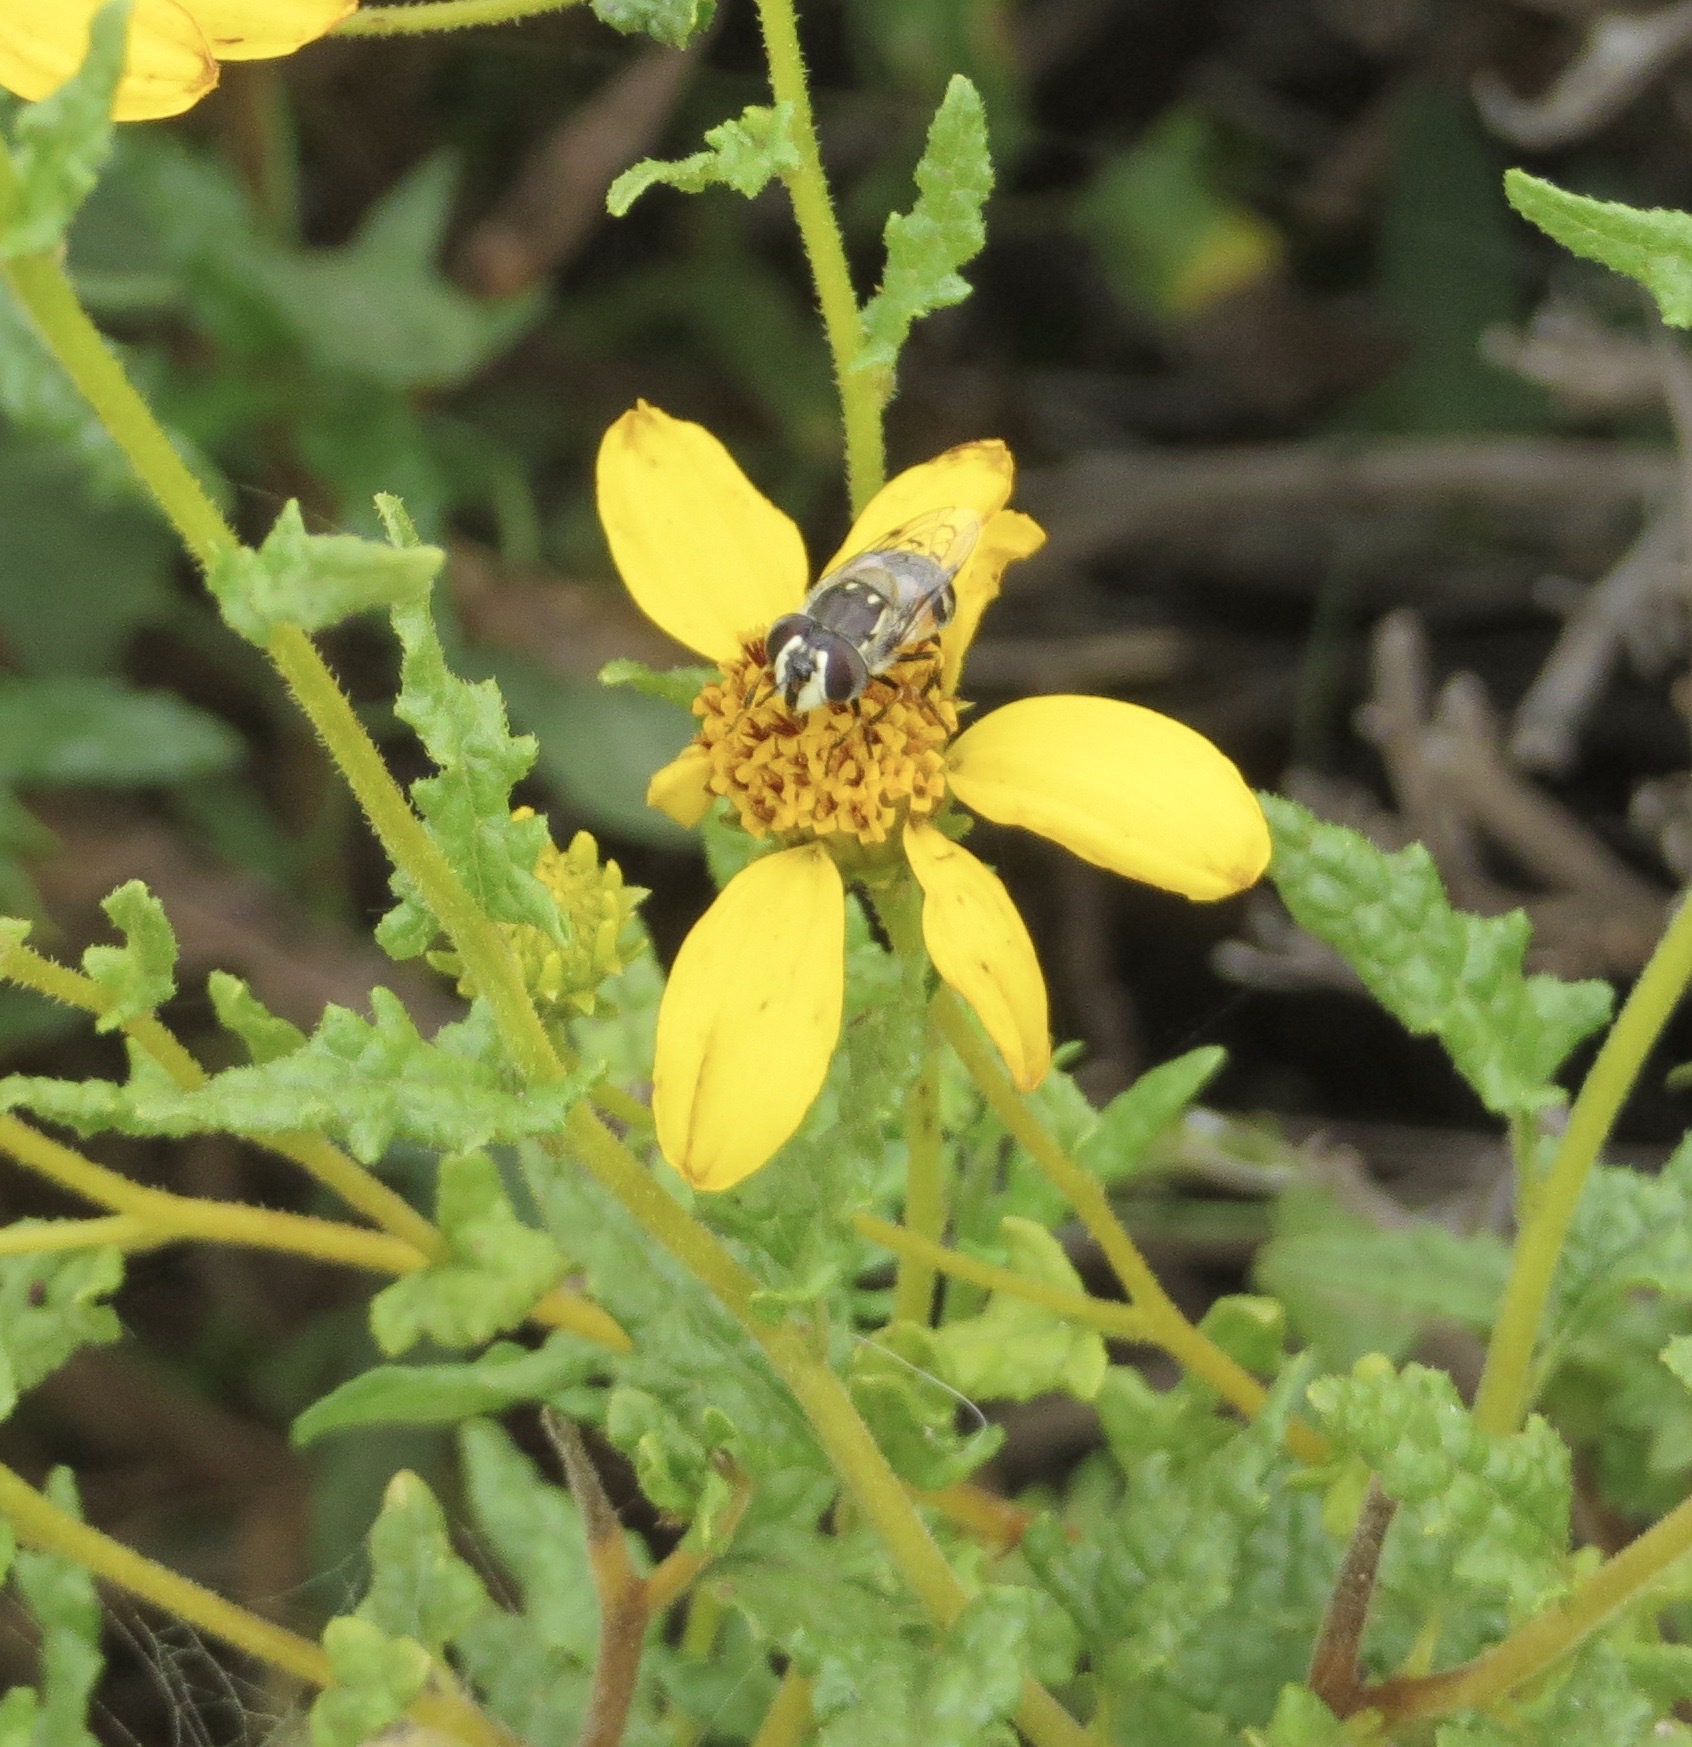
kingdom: Animalia
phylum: Arthropoda
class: Insecta
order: Diptera
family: Syrphidae
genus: Copestylum
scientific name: Copestylum marginatum
